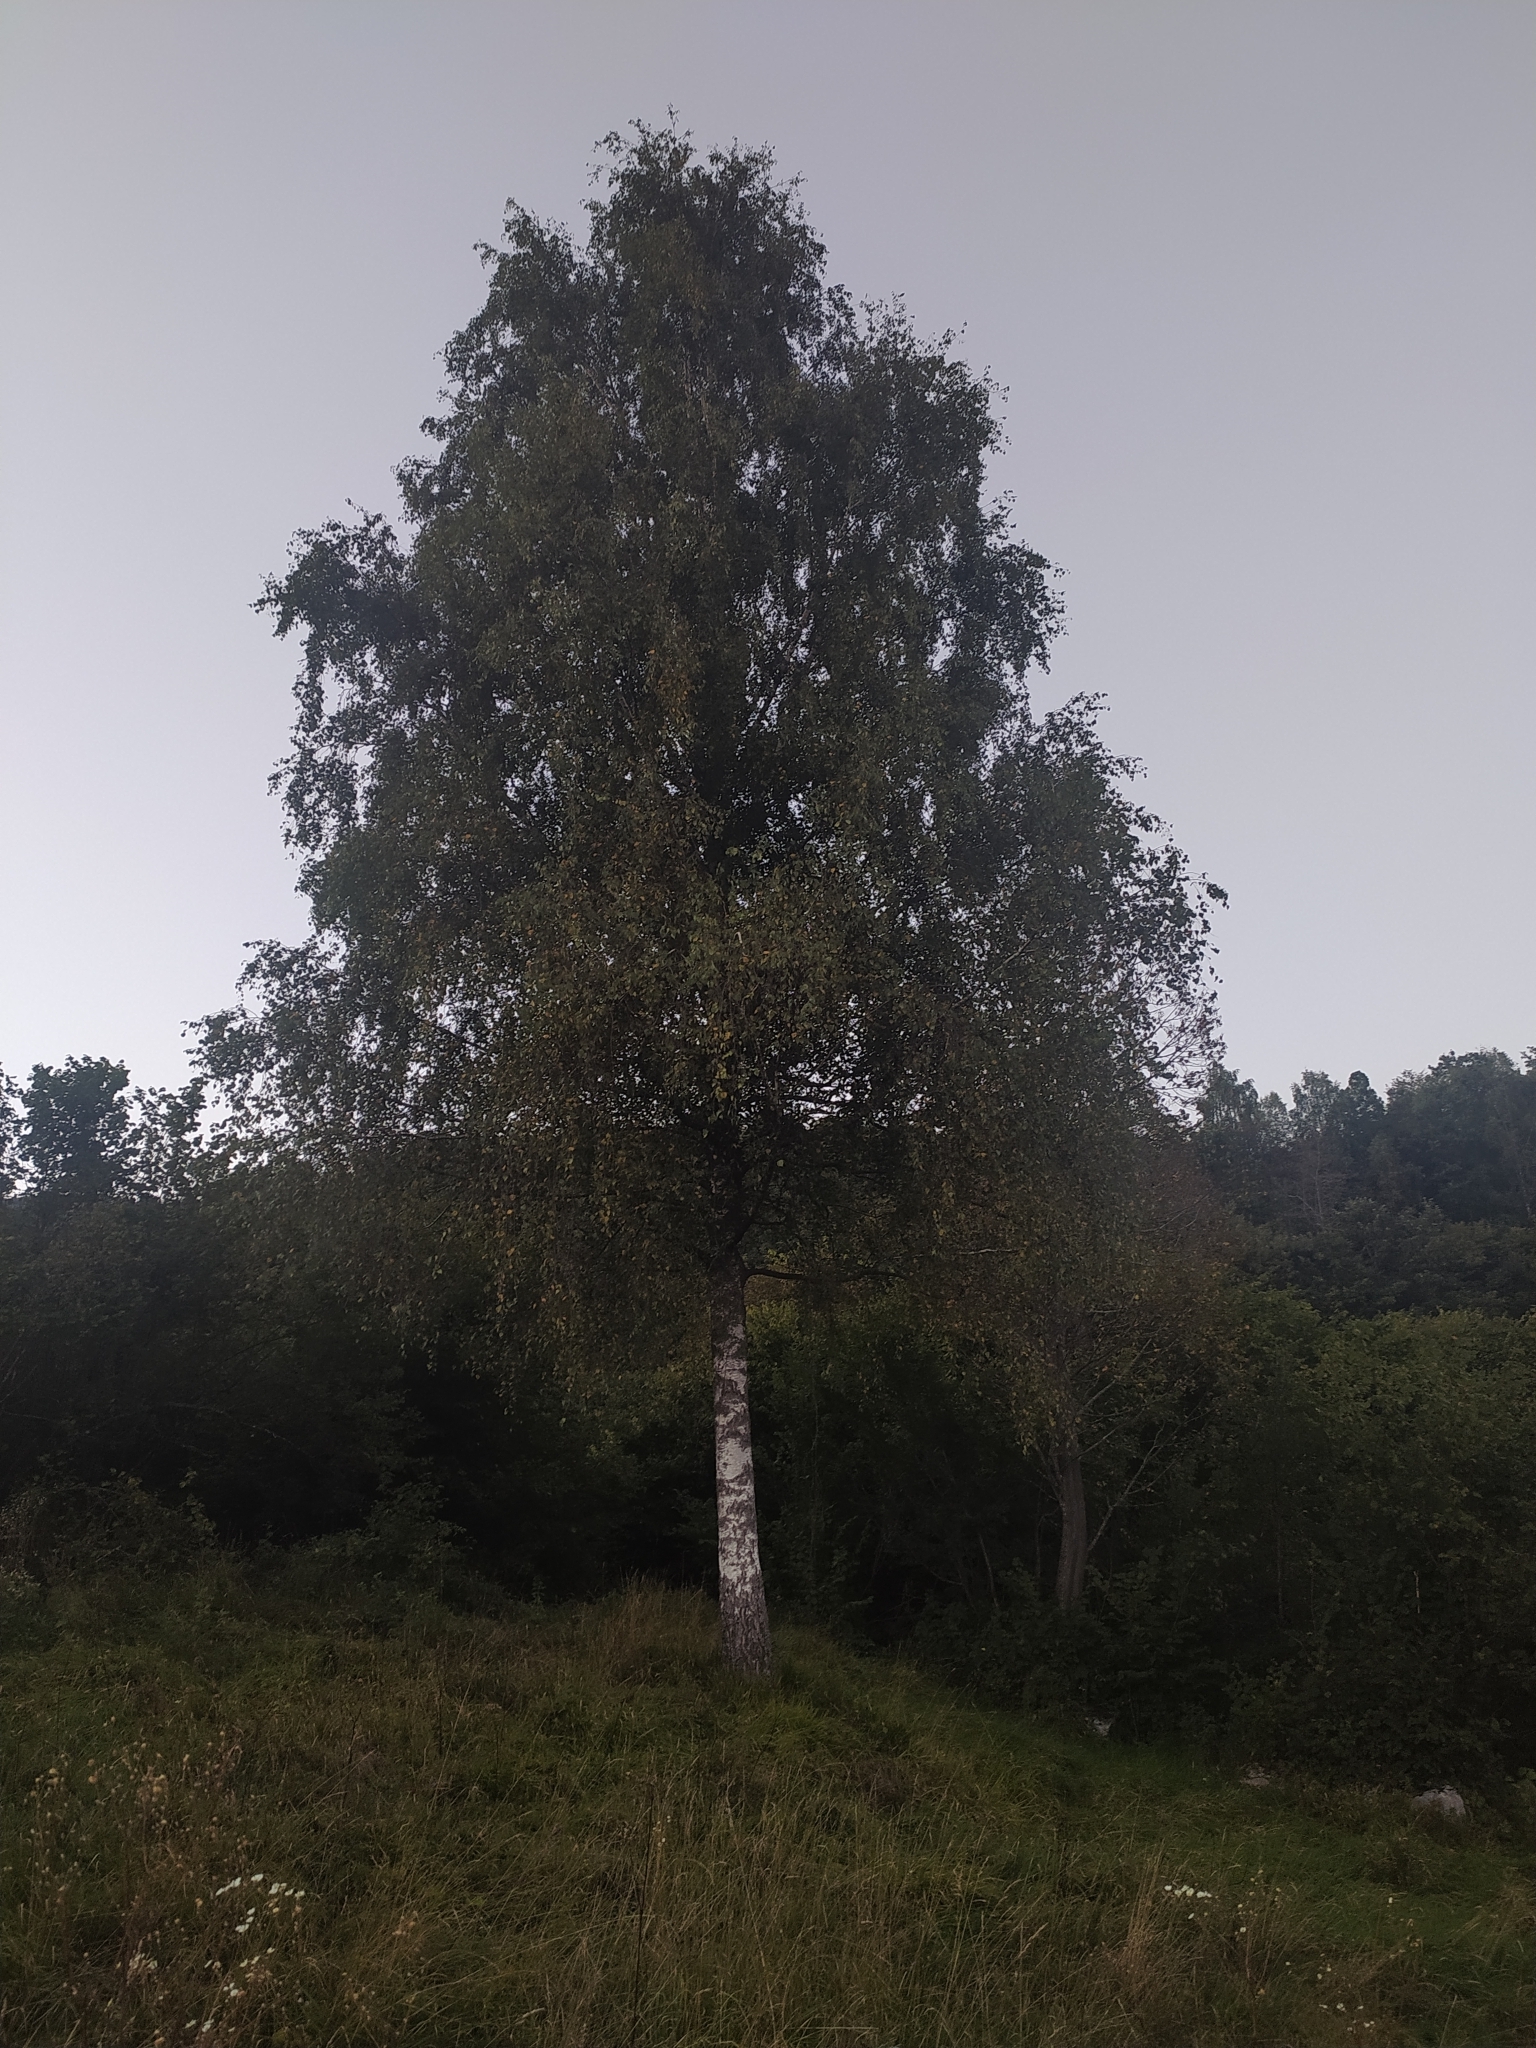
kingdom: Plantae
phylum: Tracheophyta
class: Magnoliopsida
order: Fagales
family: Betulaceae
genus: Betula
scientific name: Betula pendula
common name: Silver birch
